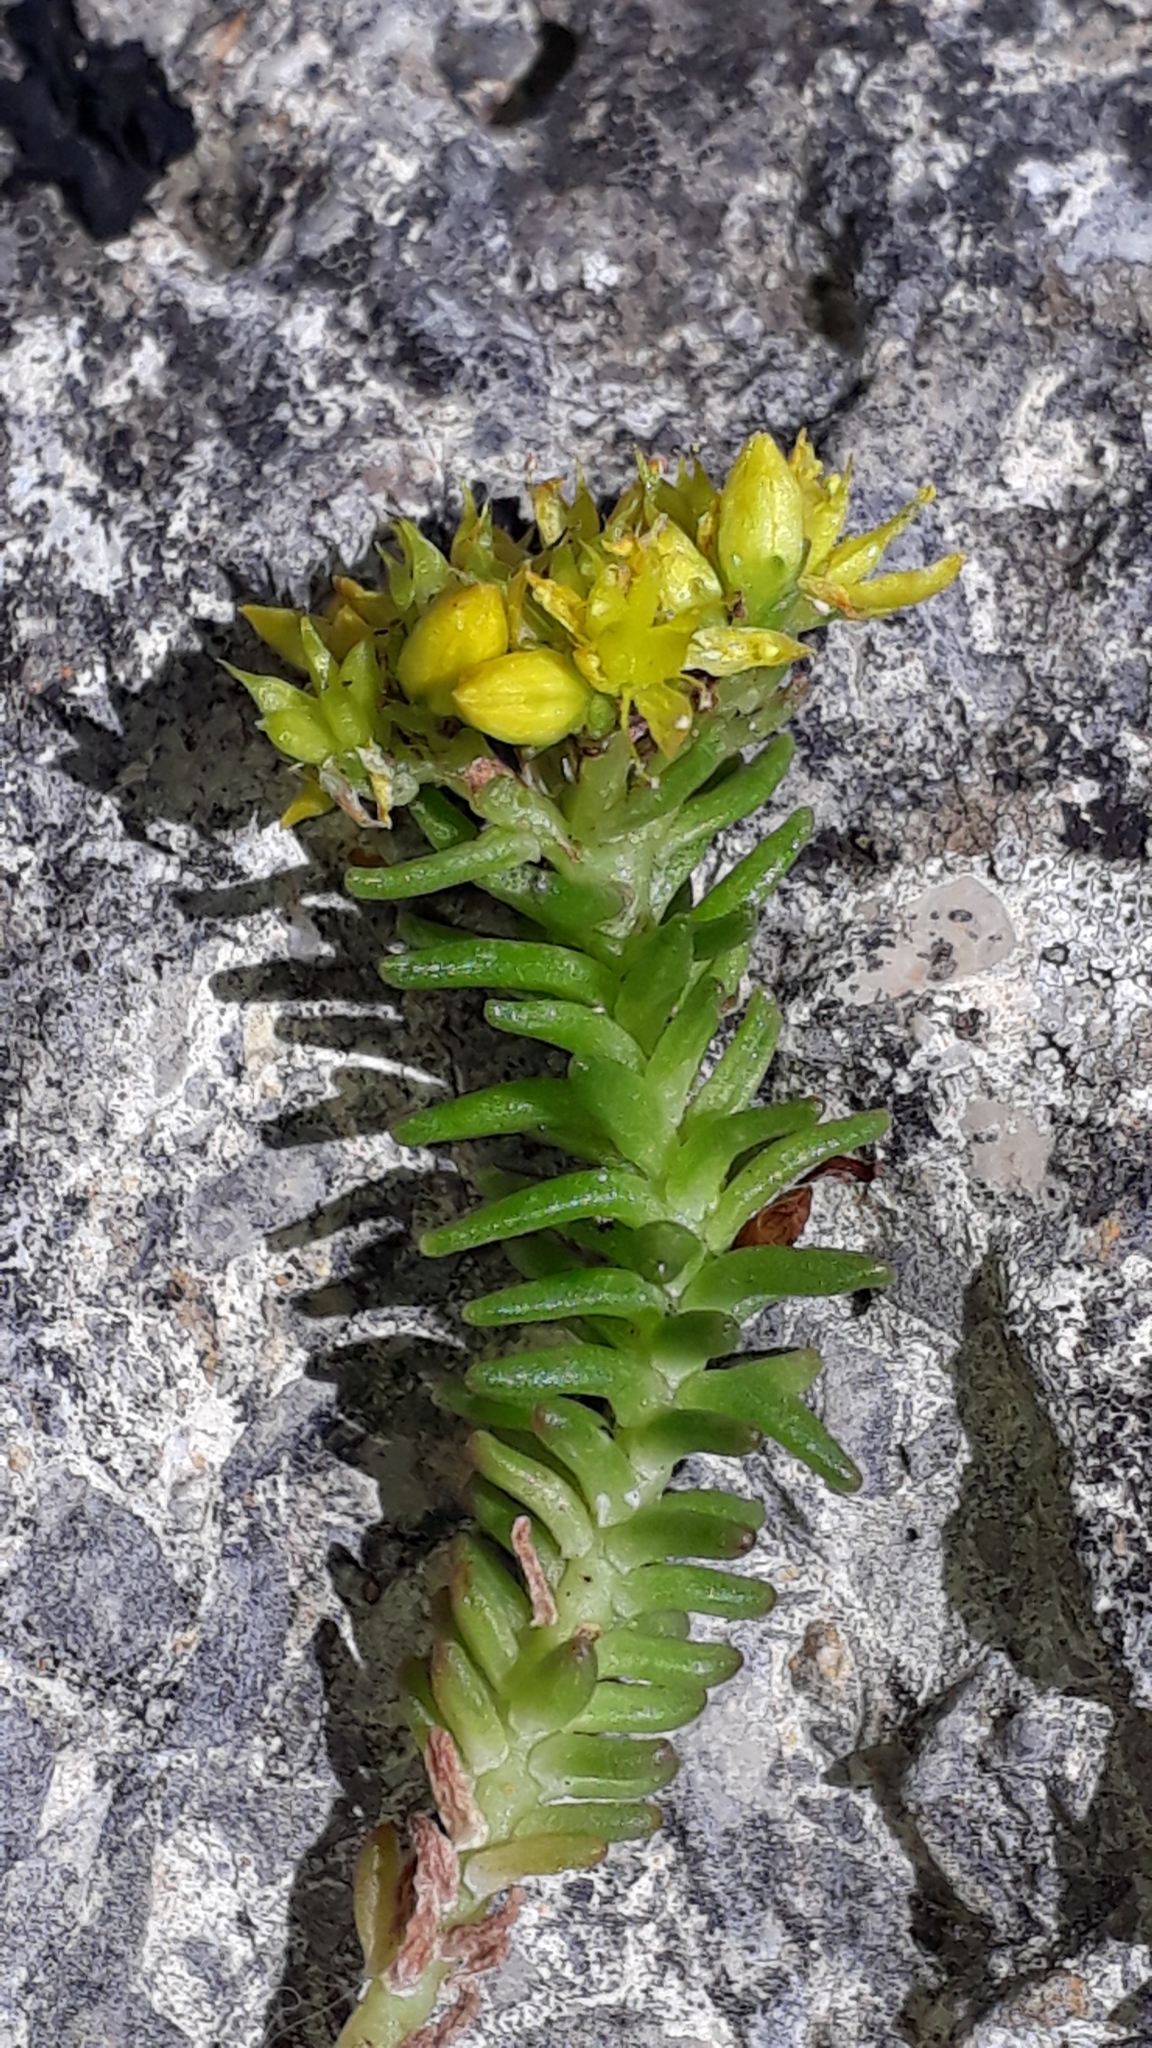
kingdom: Plantae
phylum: Tracheophyta
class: Magnoliopsida
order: Saxifragales
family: Crassulaceae
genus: Sedum
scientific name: Sedum sexangulare
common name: Tasteless stonecrop
